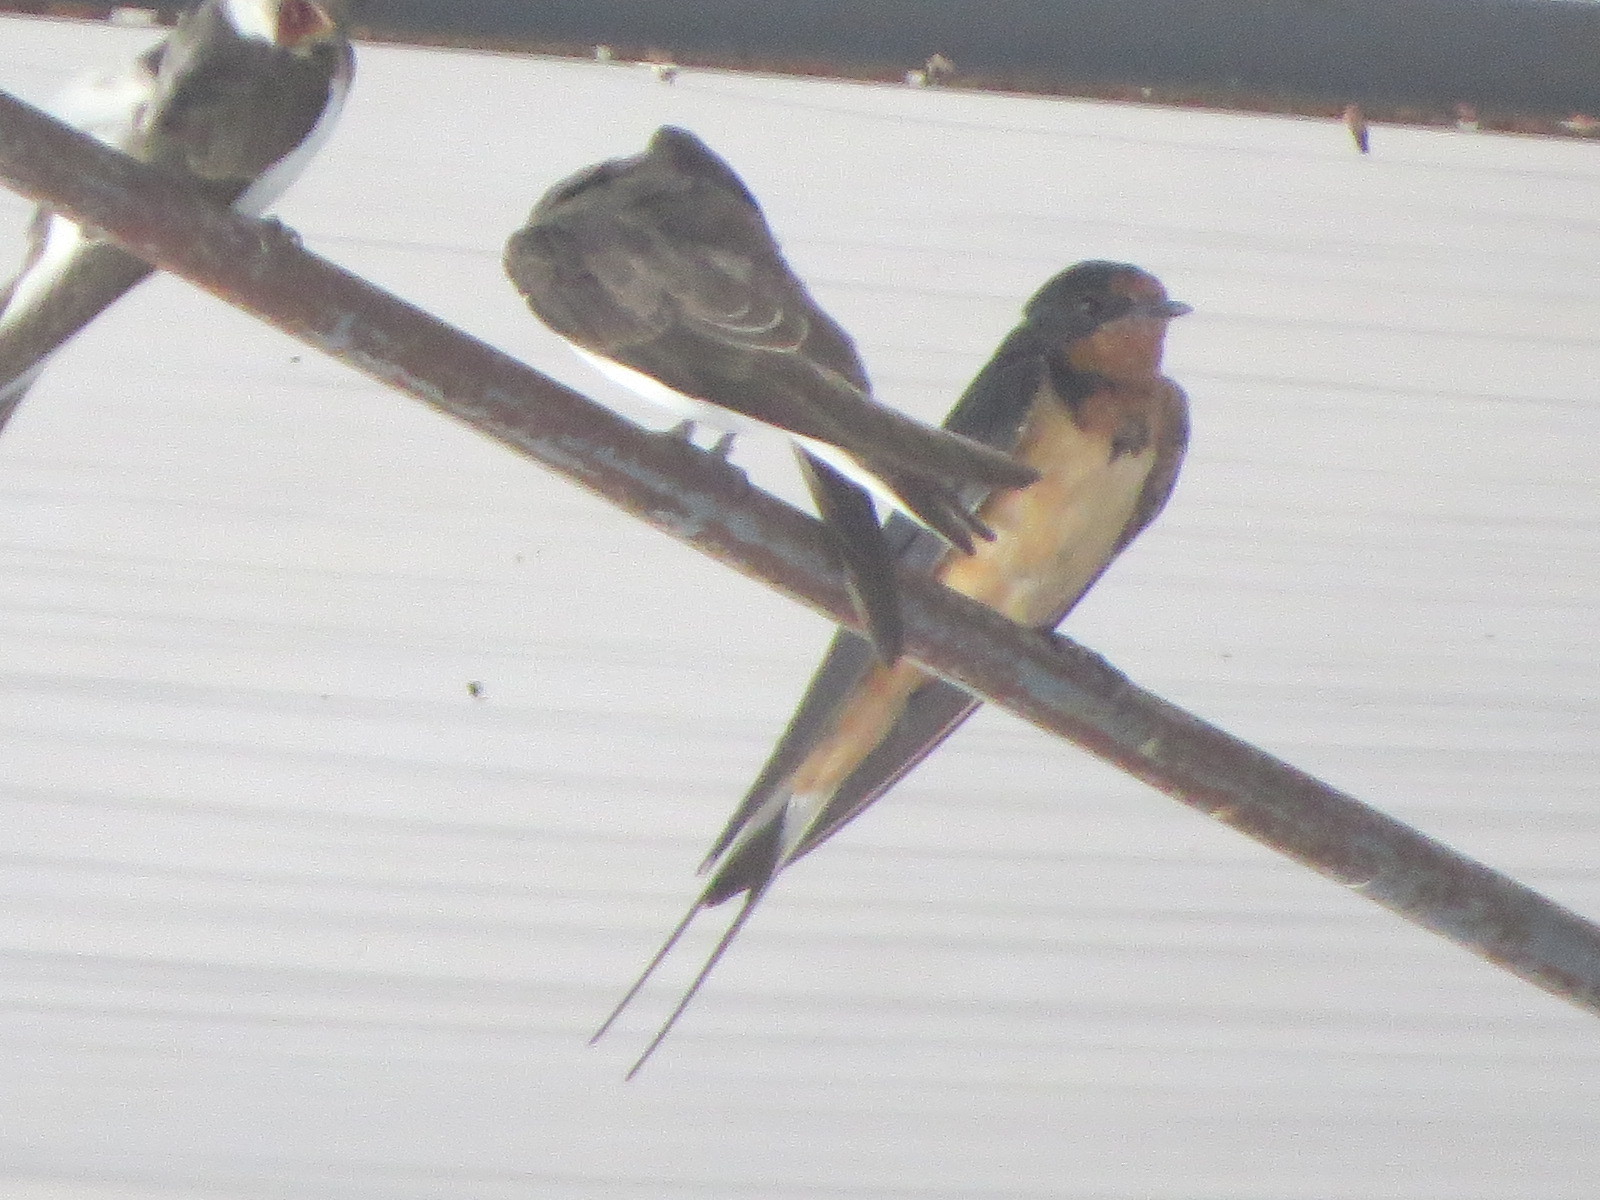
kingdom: Animalia
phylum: Chordata
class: Aves
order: Passeriformes
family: Hirundinidae
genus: Hirundo
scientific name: Hirundo rustica
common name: Barn swallow
